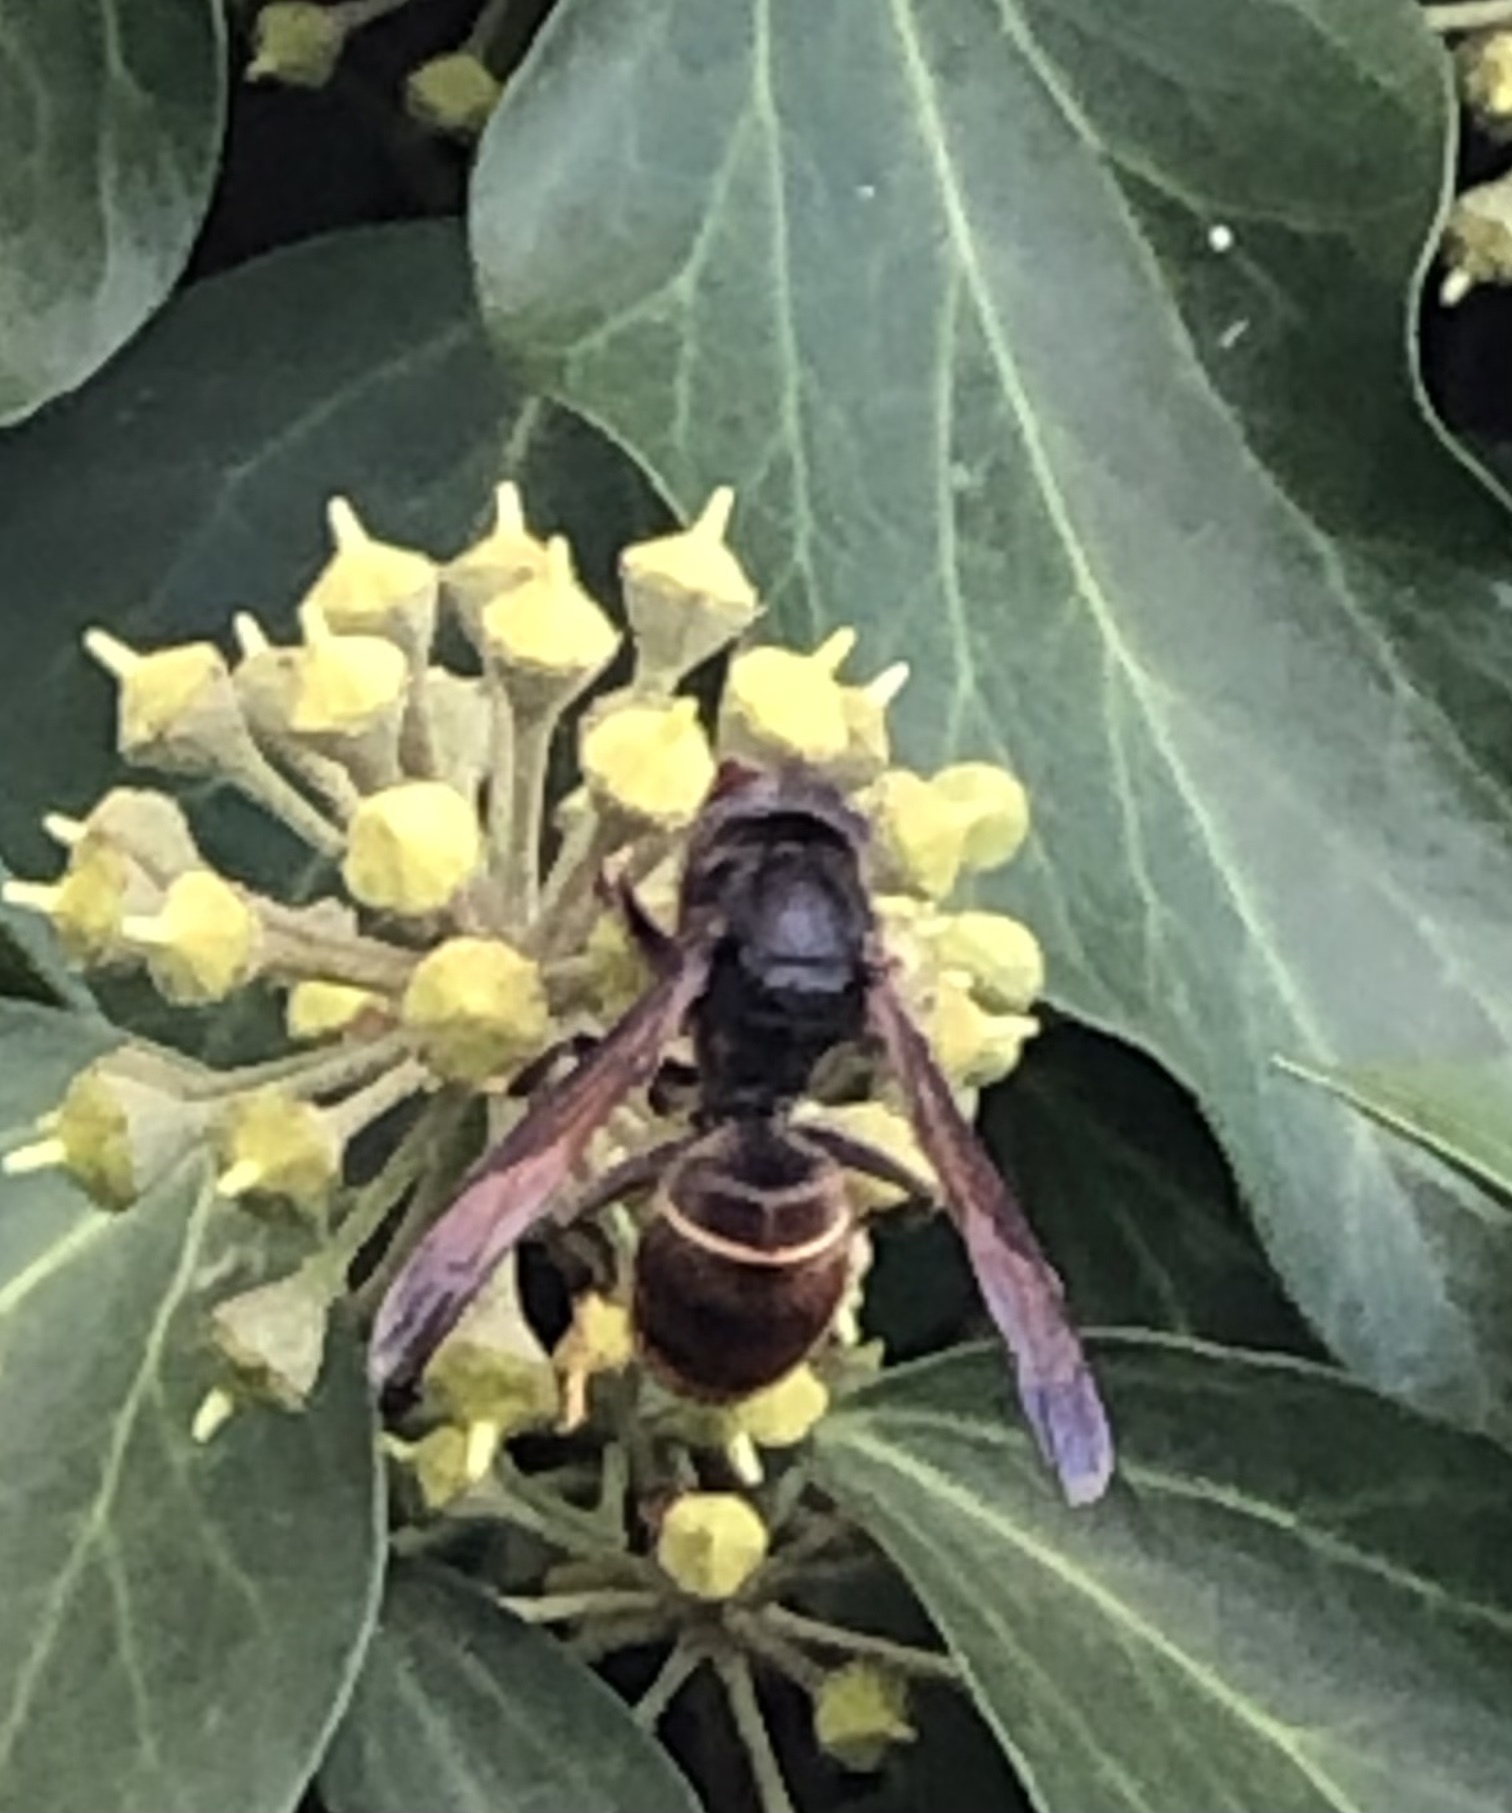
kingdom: Animalia
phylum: Arthropoda
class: Insecta
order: Hymenoptera
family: Vespidae
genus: Vespa
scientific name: Vespa velutina
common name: Asian hornet
